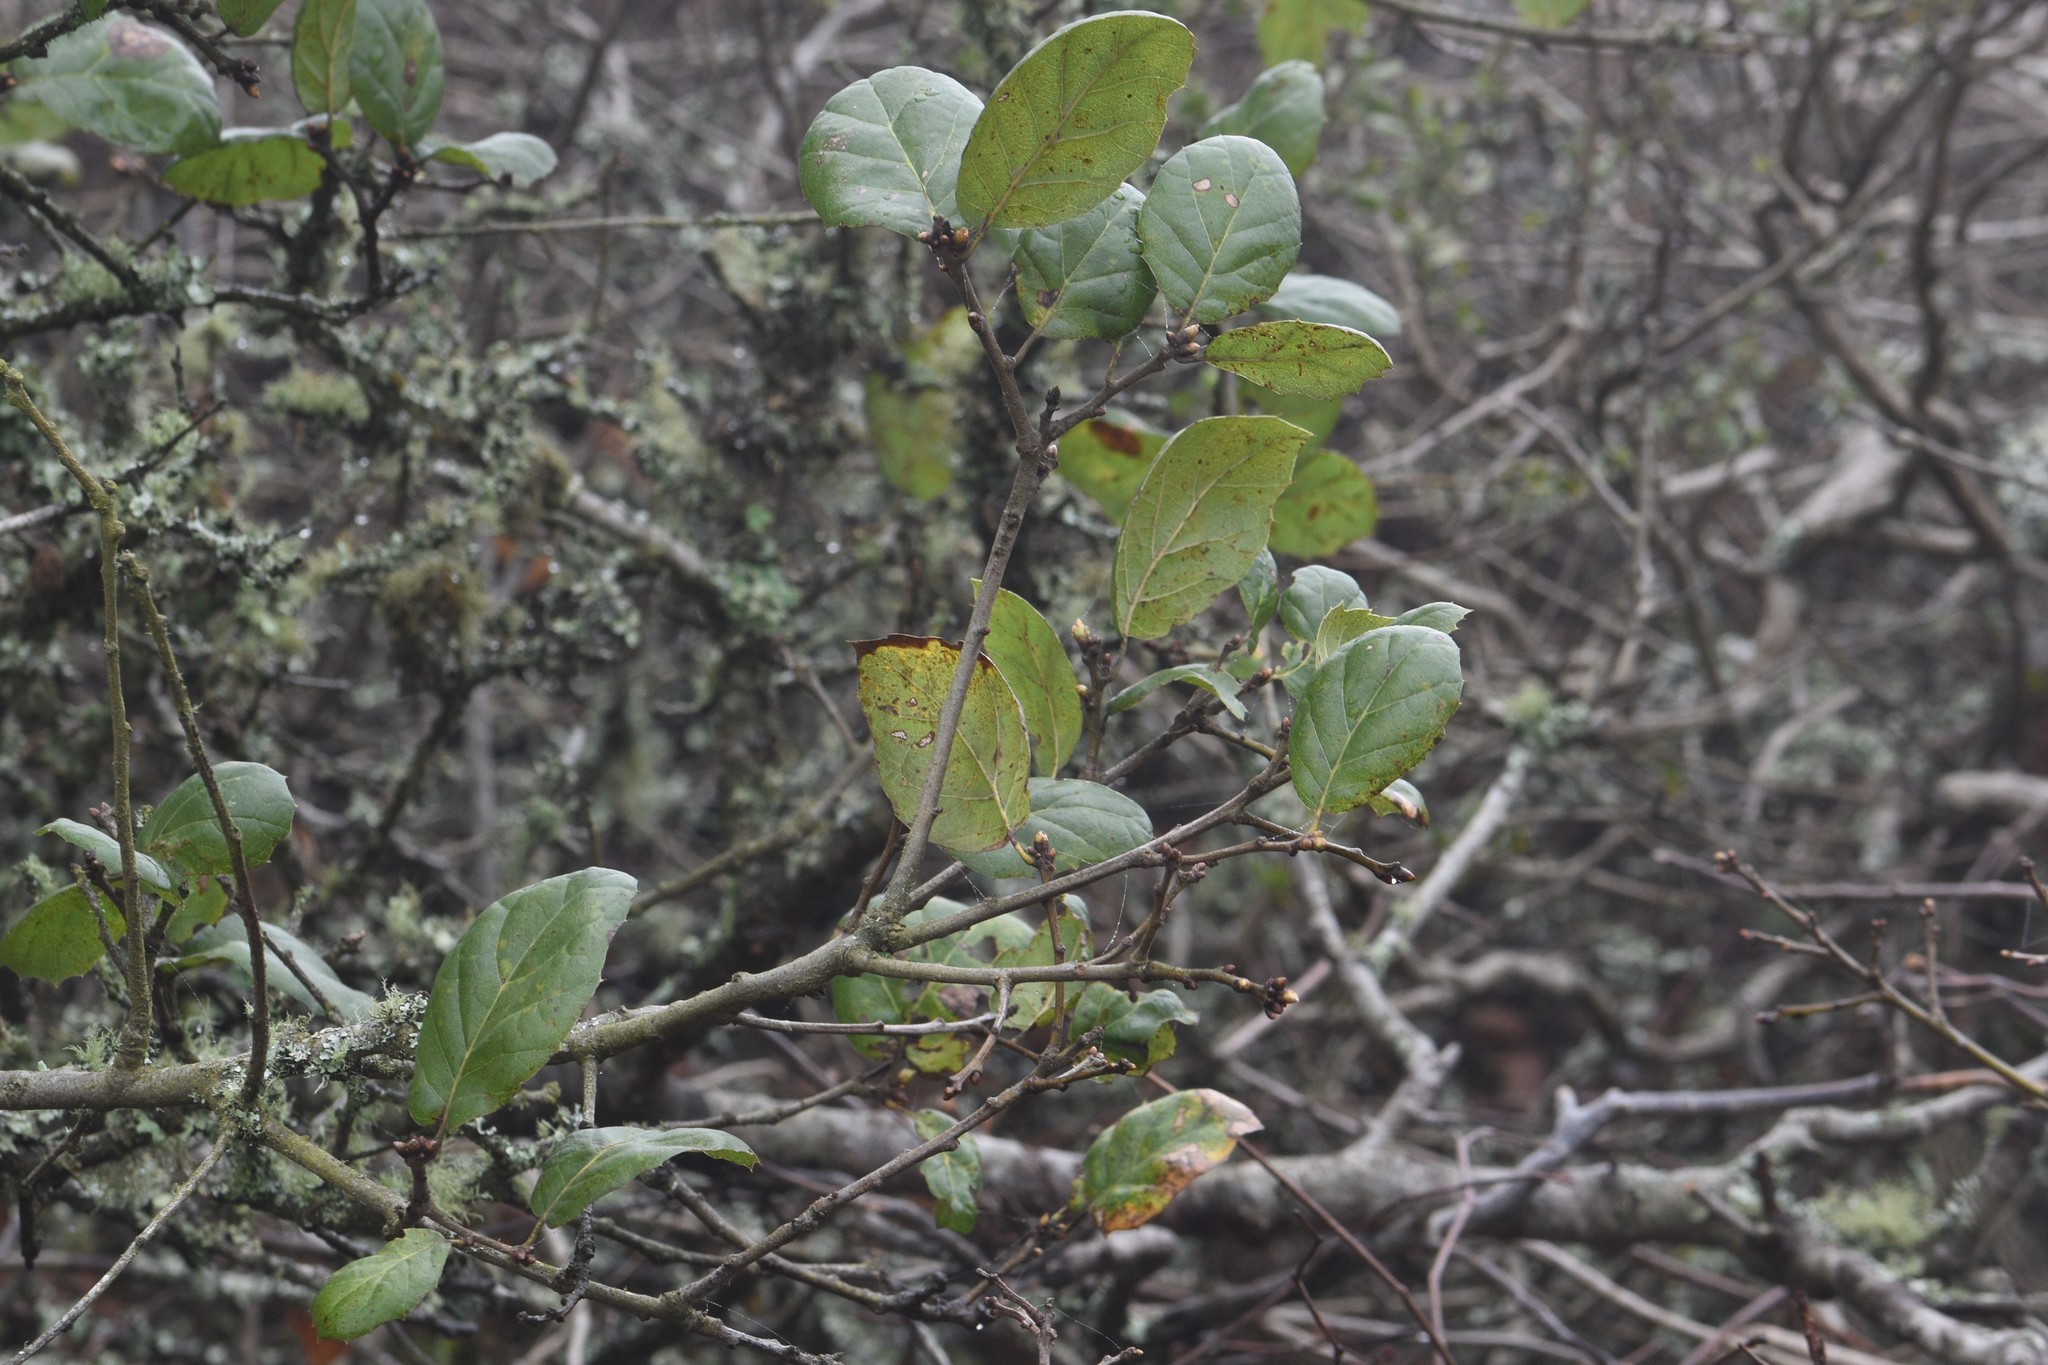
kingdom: Plantae
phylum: Tracheophyta
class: Magnoliopsida
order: Fagales
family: Fagaceae
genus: Quercus
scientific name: Quercus agrifolia
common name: California live oak
